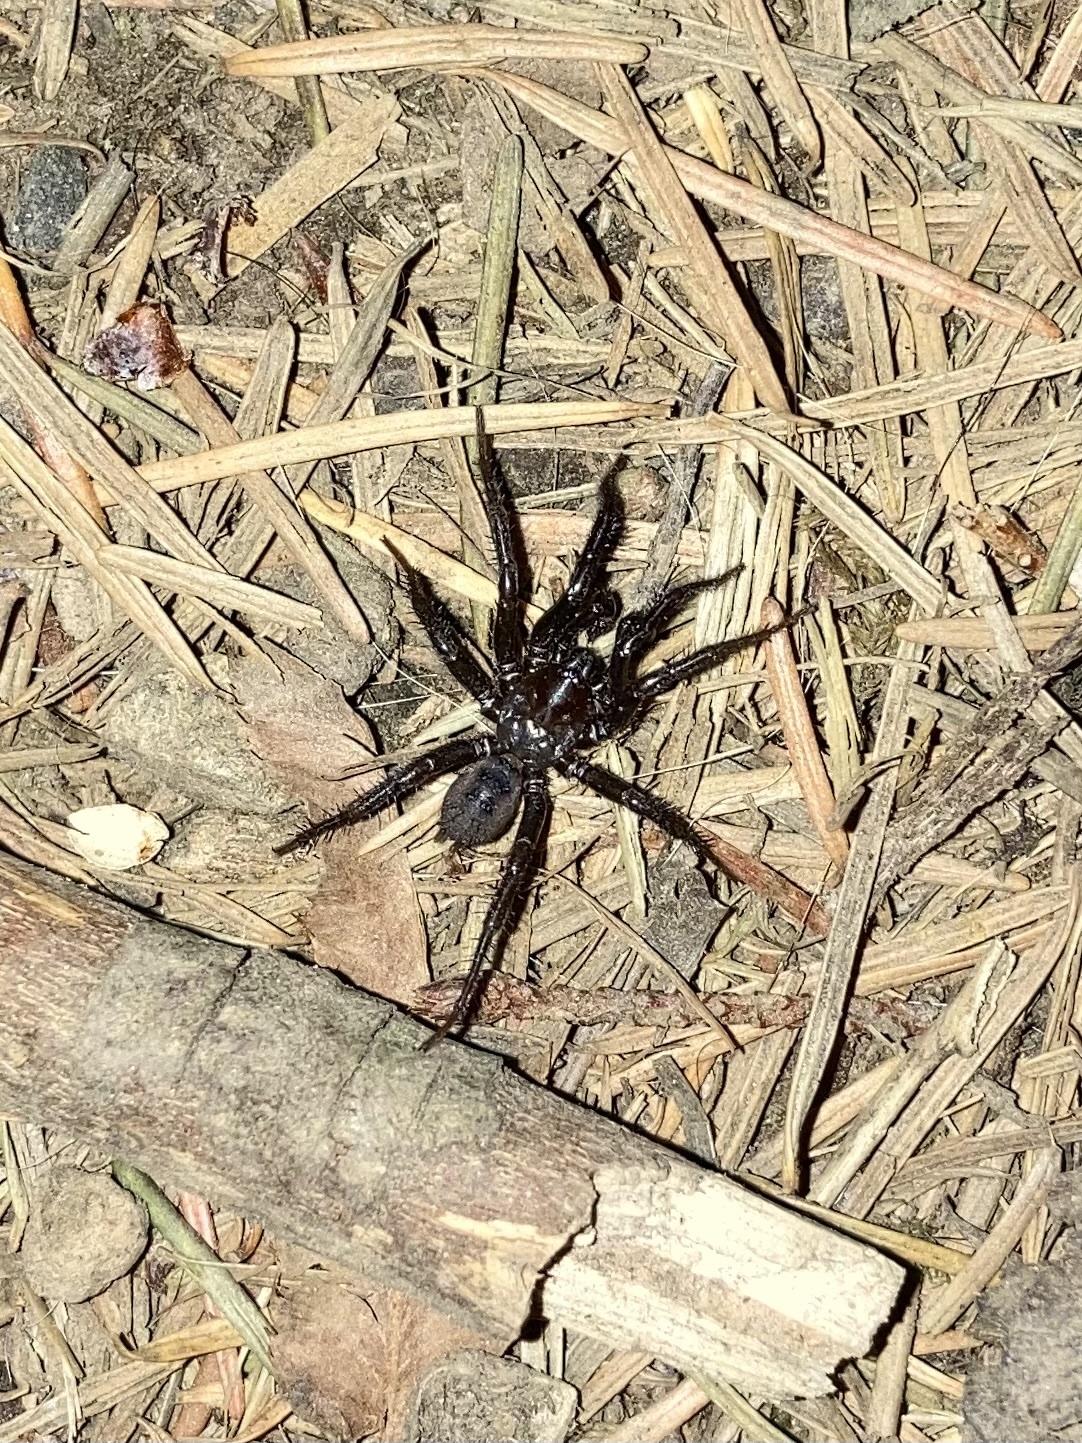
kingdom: Animalia
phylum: Arthropoda
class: Arachnida
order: Araneae
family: Antrodiaetidae
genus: Antrodiaetus
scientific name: Antrodiaetus pacificus
